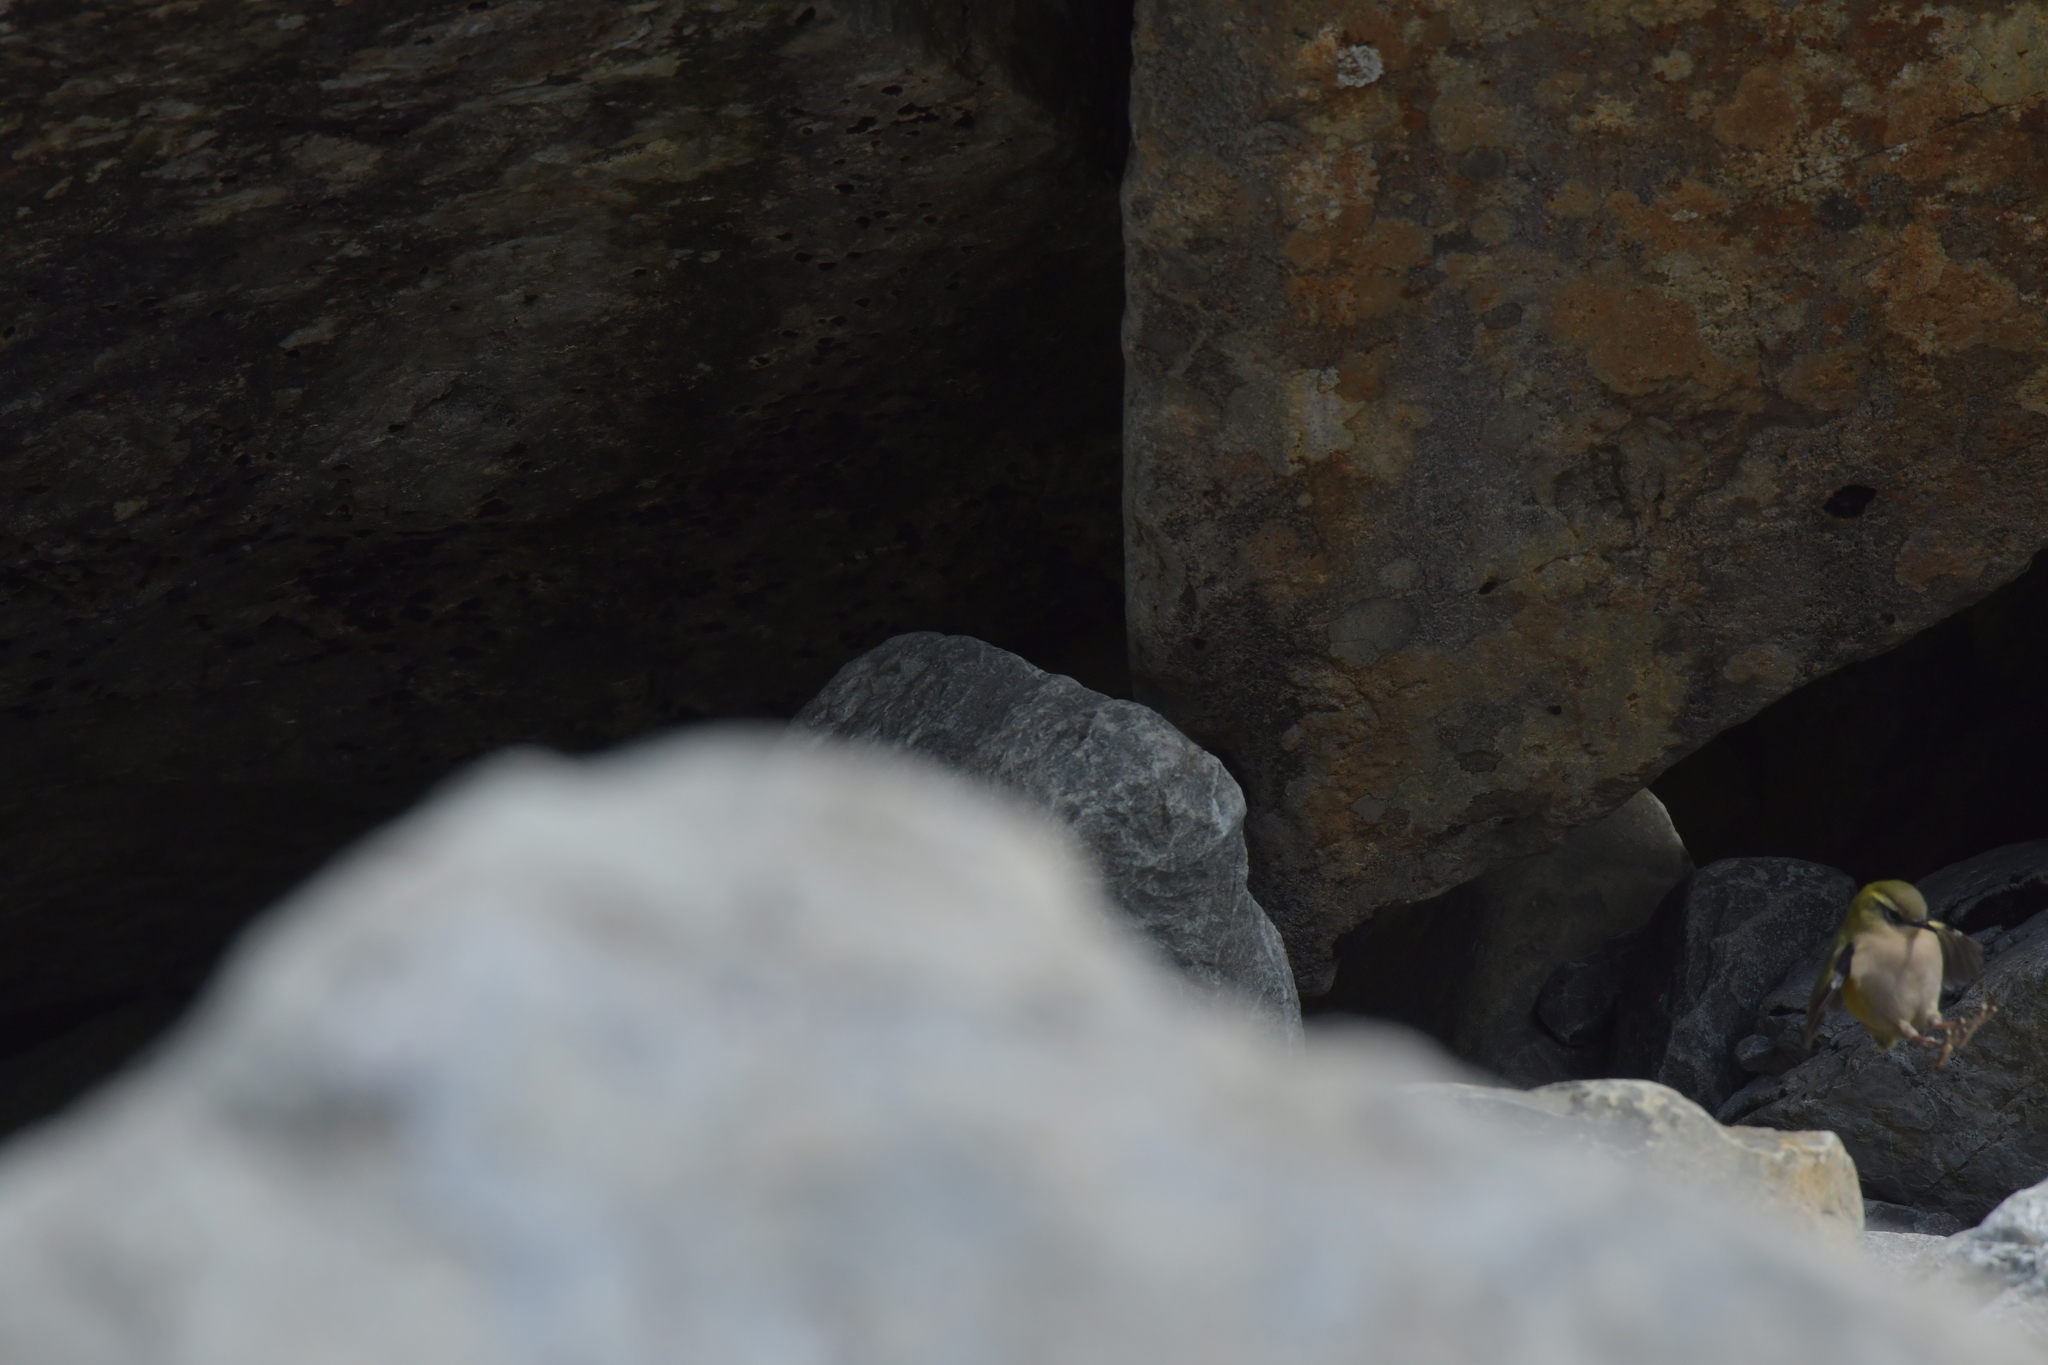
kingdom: Animalia
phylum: Chordata
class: Aves
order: Passeriformes
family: Acanthisittidae
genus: Xenicus
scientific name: Xenicus gilviventris
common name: New zealand rockwren
